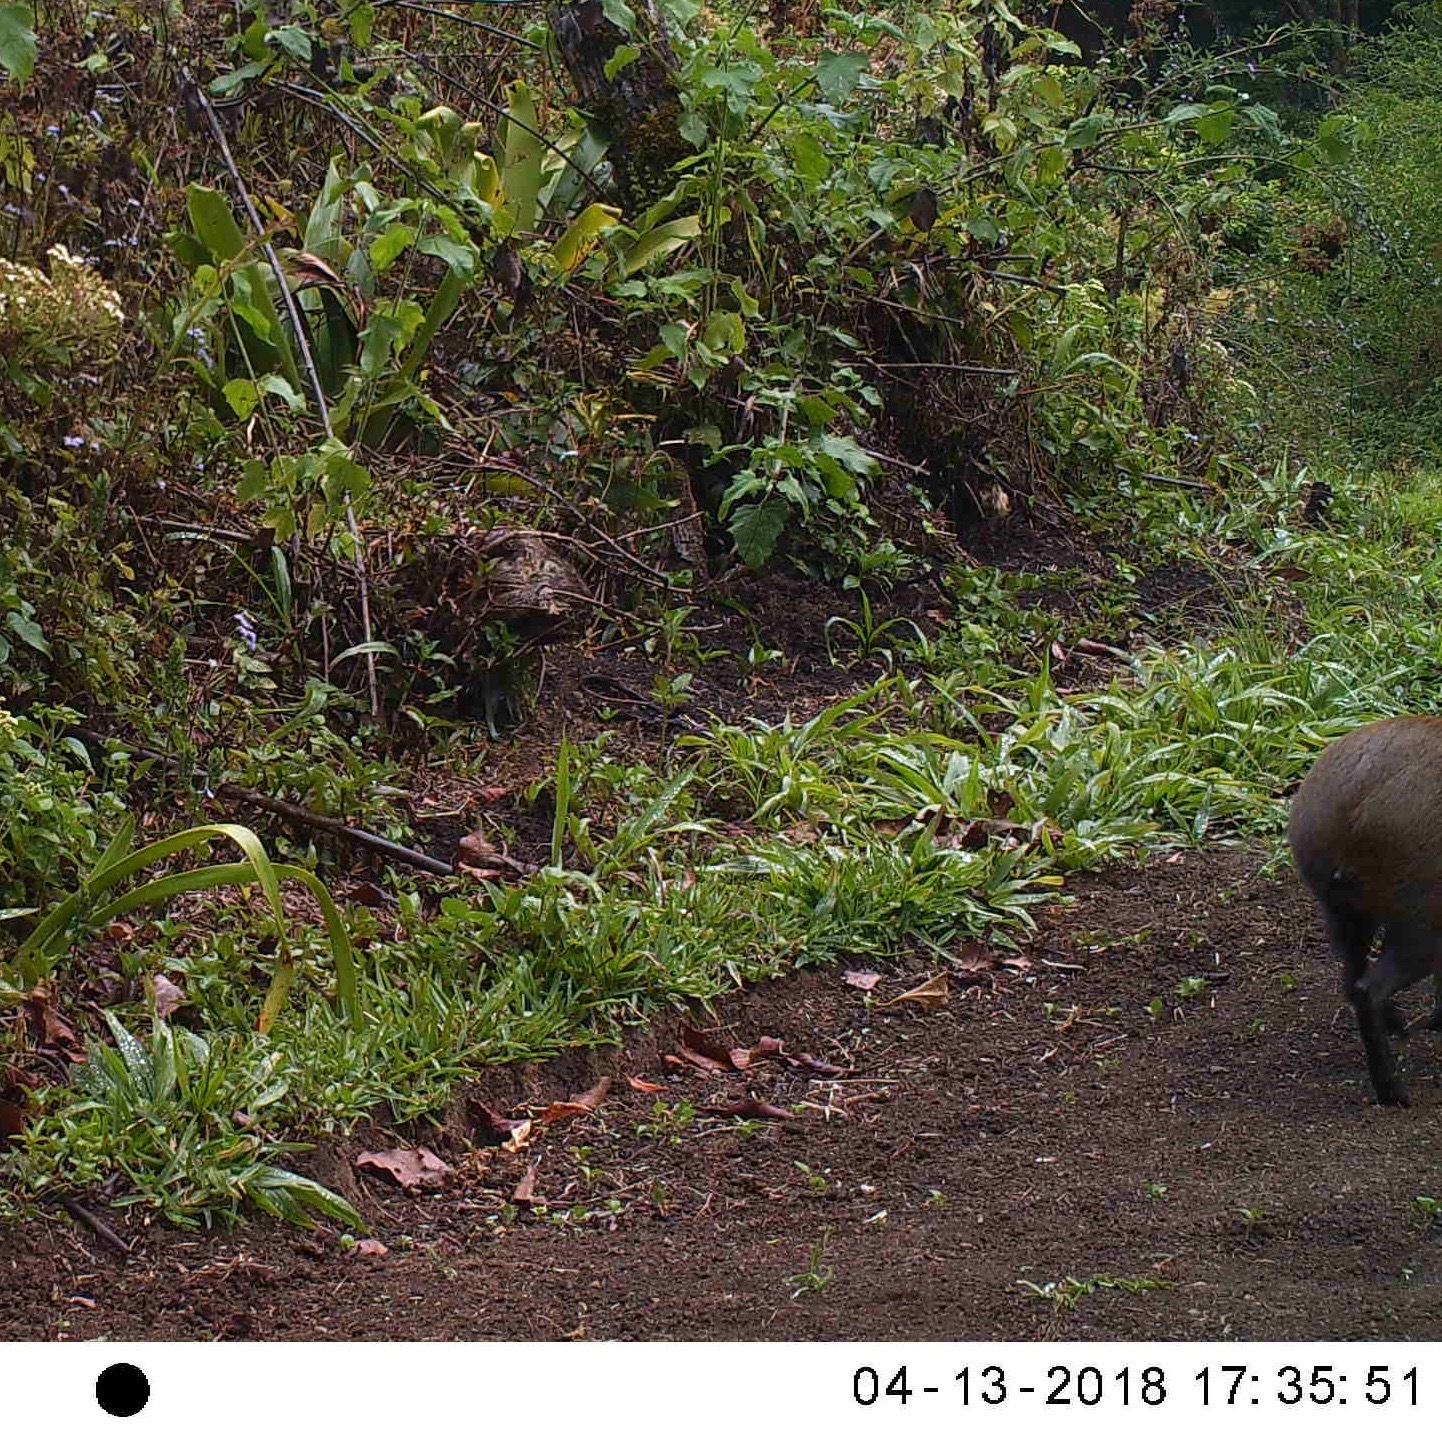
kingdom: Animalia
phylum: Chordata
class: Mammalia
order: Rodentia
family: Dasyproctidae
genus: Dasyprocta
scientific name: Dasyprocta punctata
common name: Central american agouti
